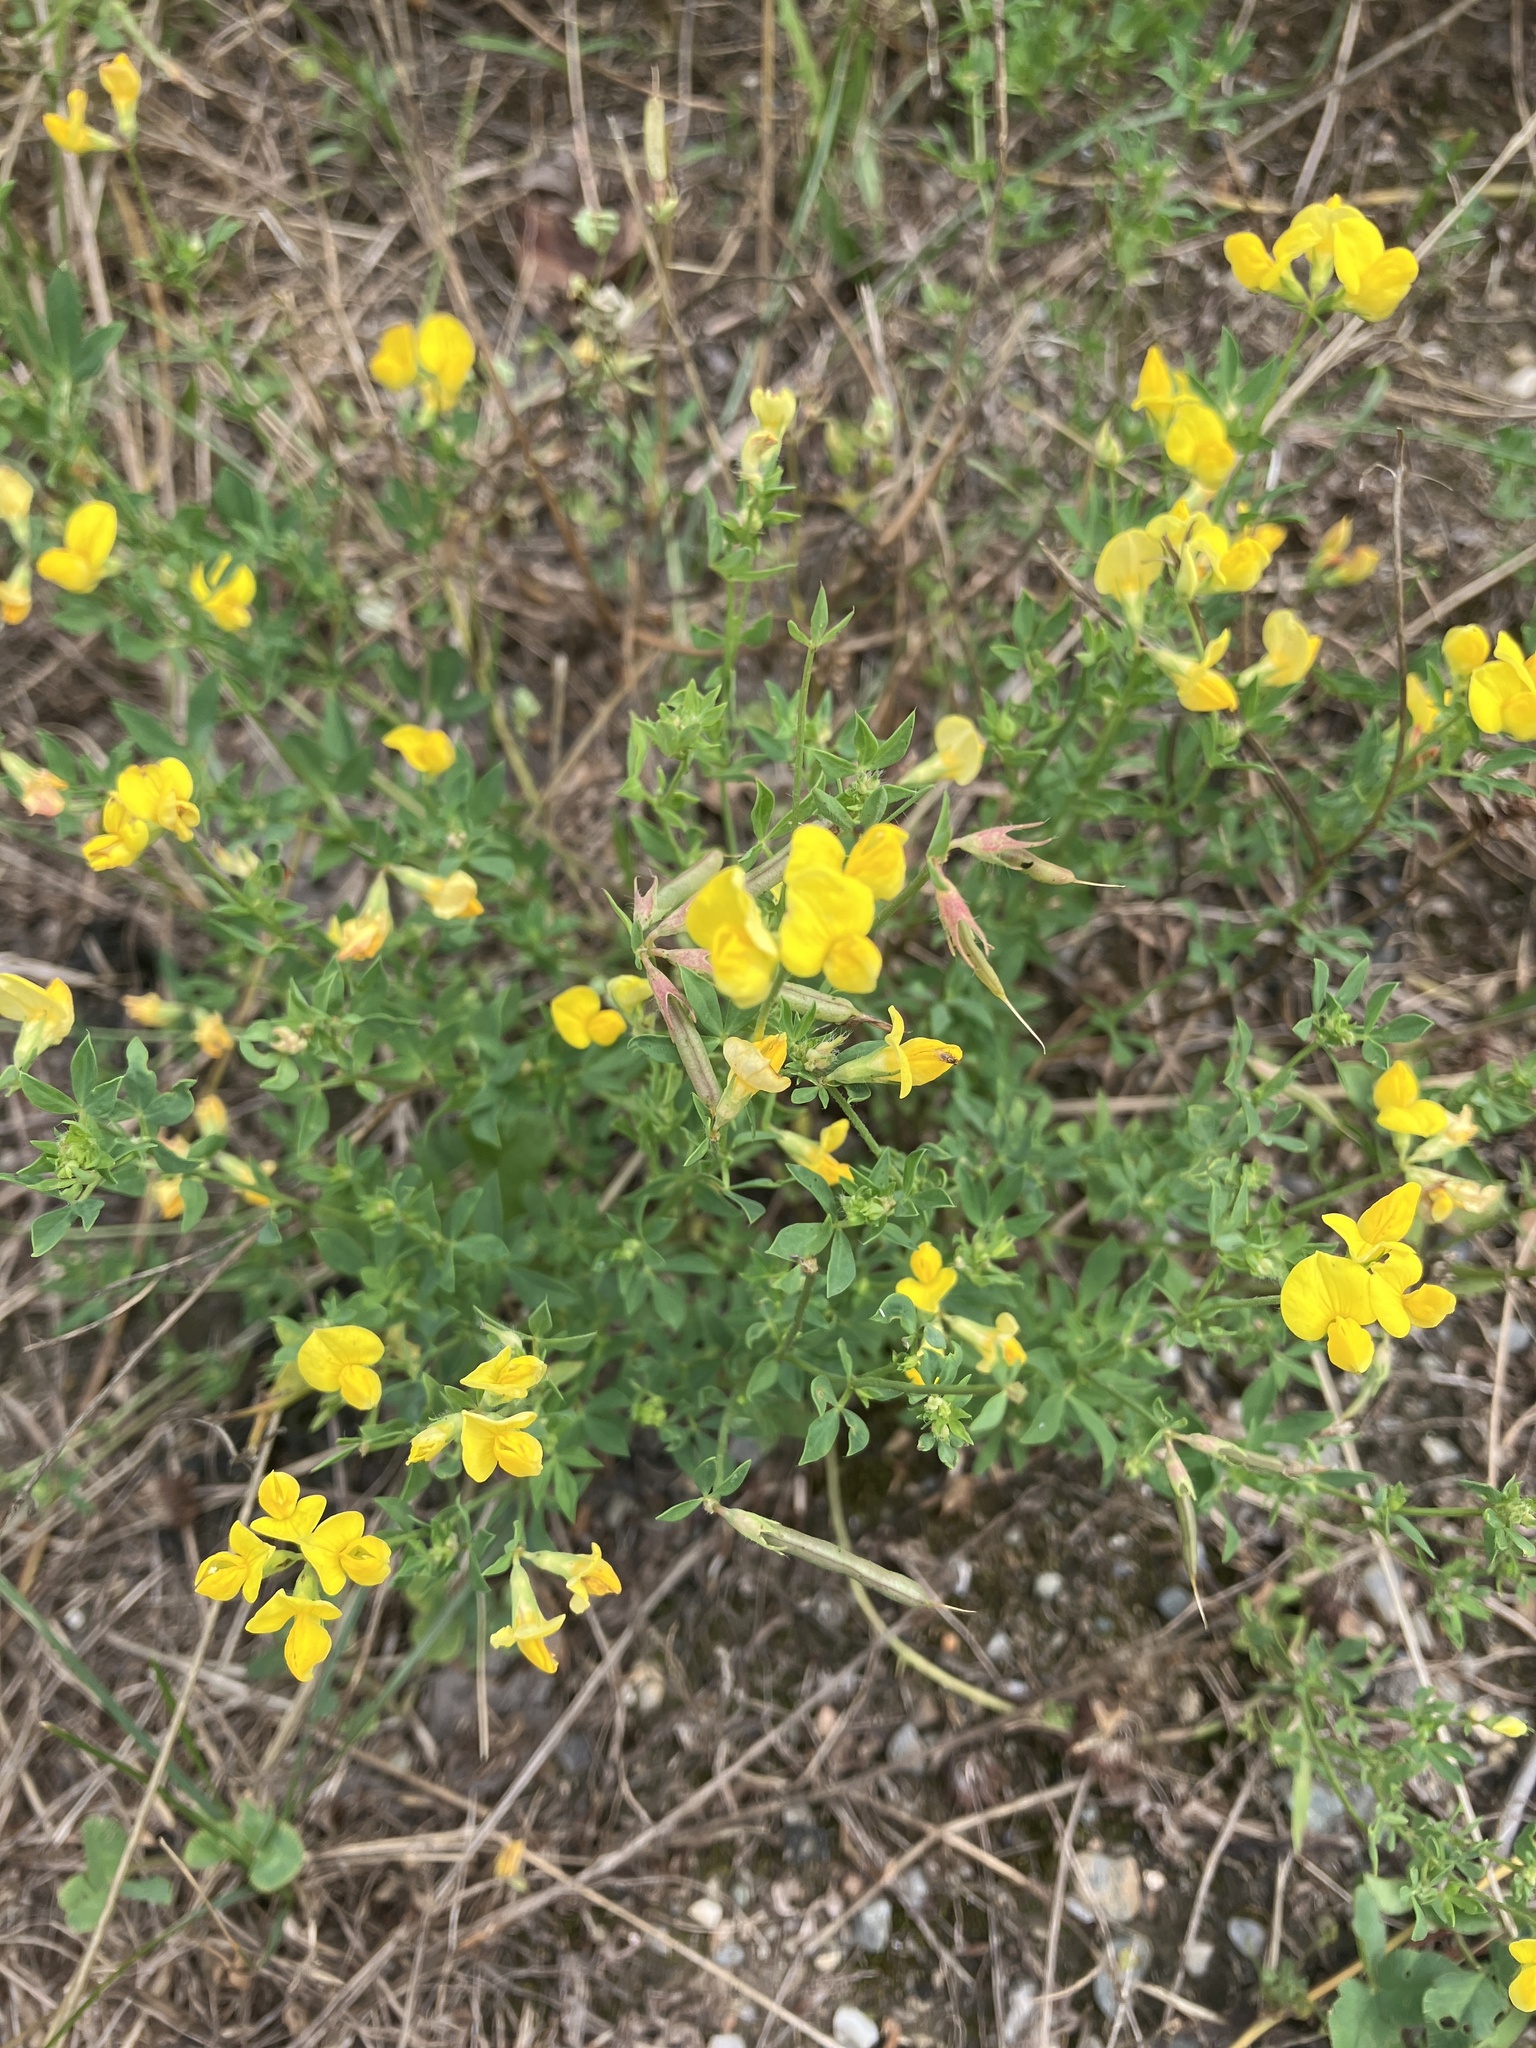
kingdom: Plantae
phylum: Tracheophyta
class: Magnoliopsida
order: Fabales
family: Fabaceae
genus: Lotus
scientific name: Lotus corniculatus
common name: Common bird's-foot-trefoil
